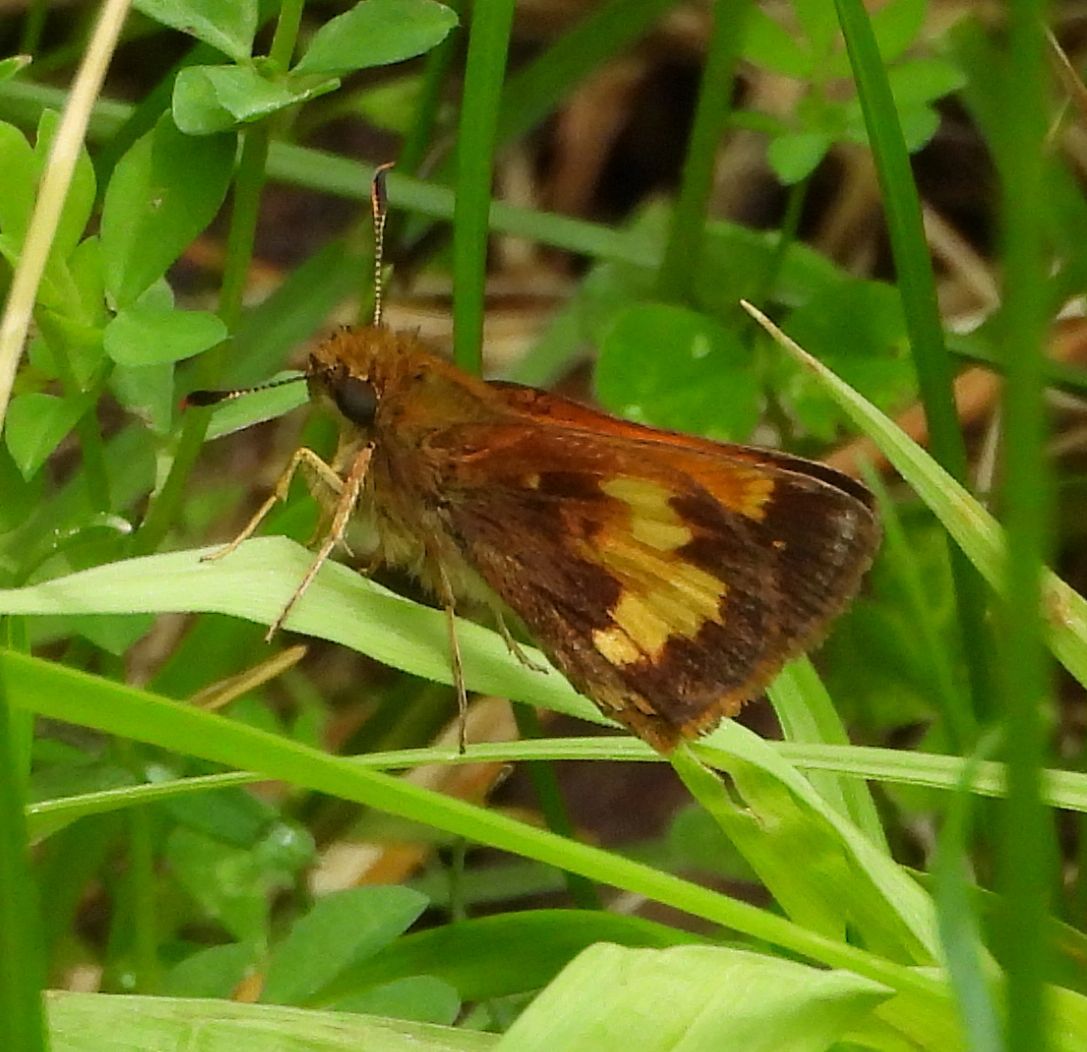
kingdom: Animalia
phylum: Arthropoda
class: Insecta
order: Lepidoptera
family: Hesperiidae
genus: Lon
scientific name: Lon hobomok
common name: Hobomok skipper
